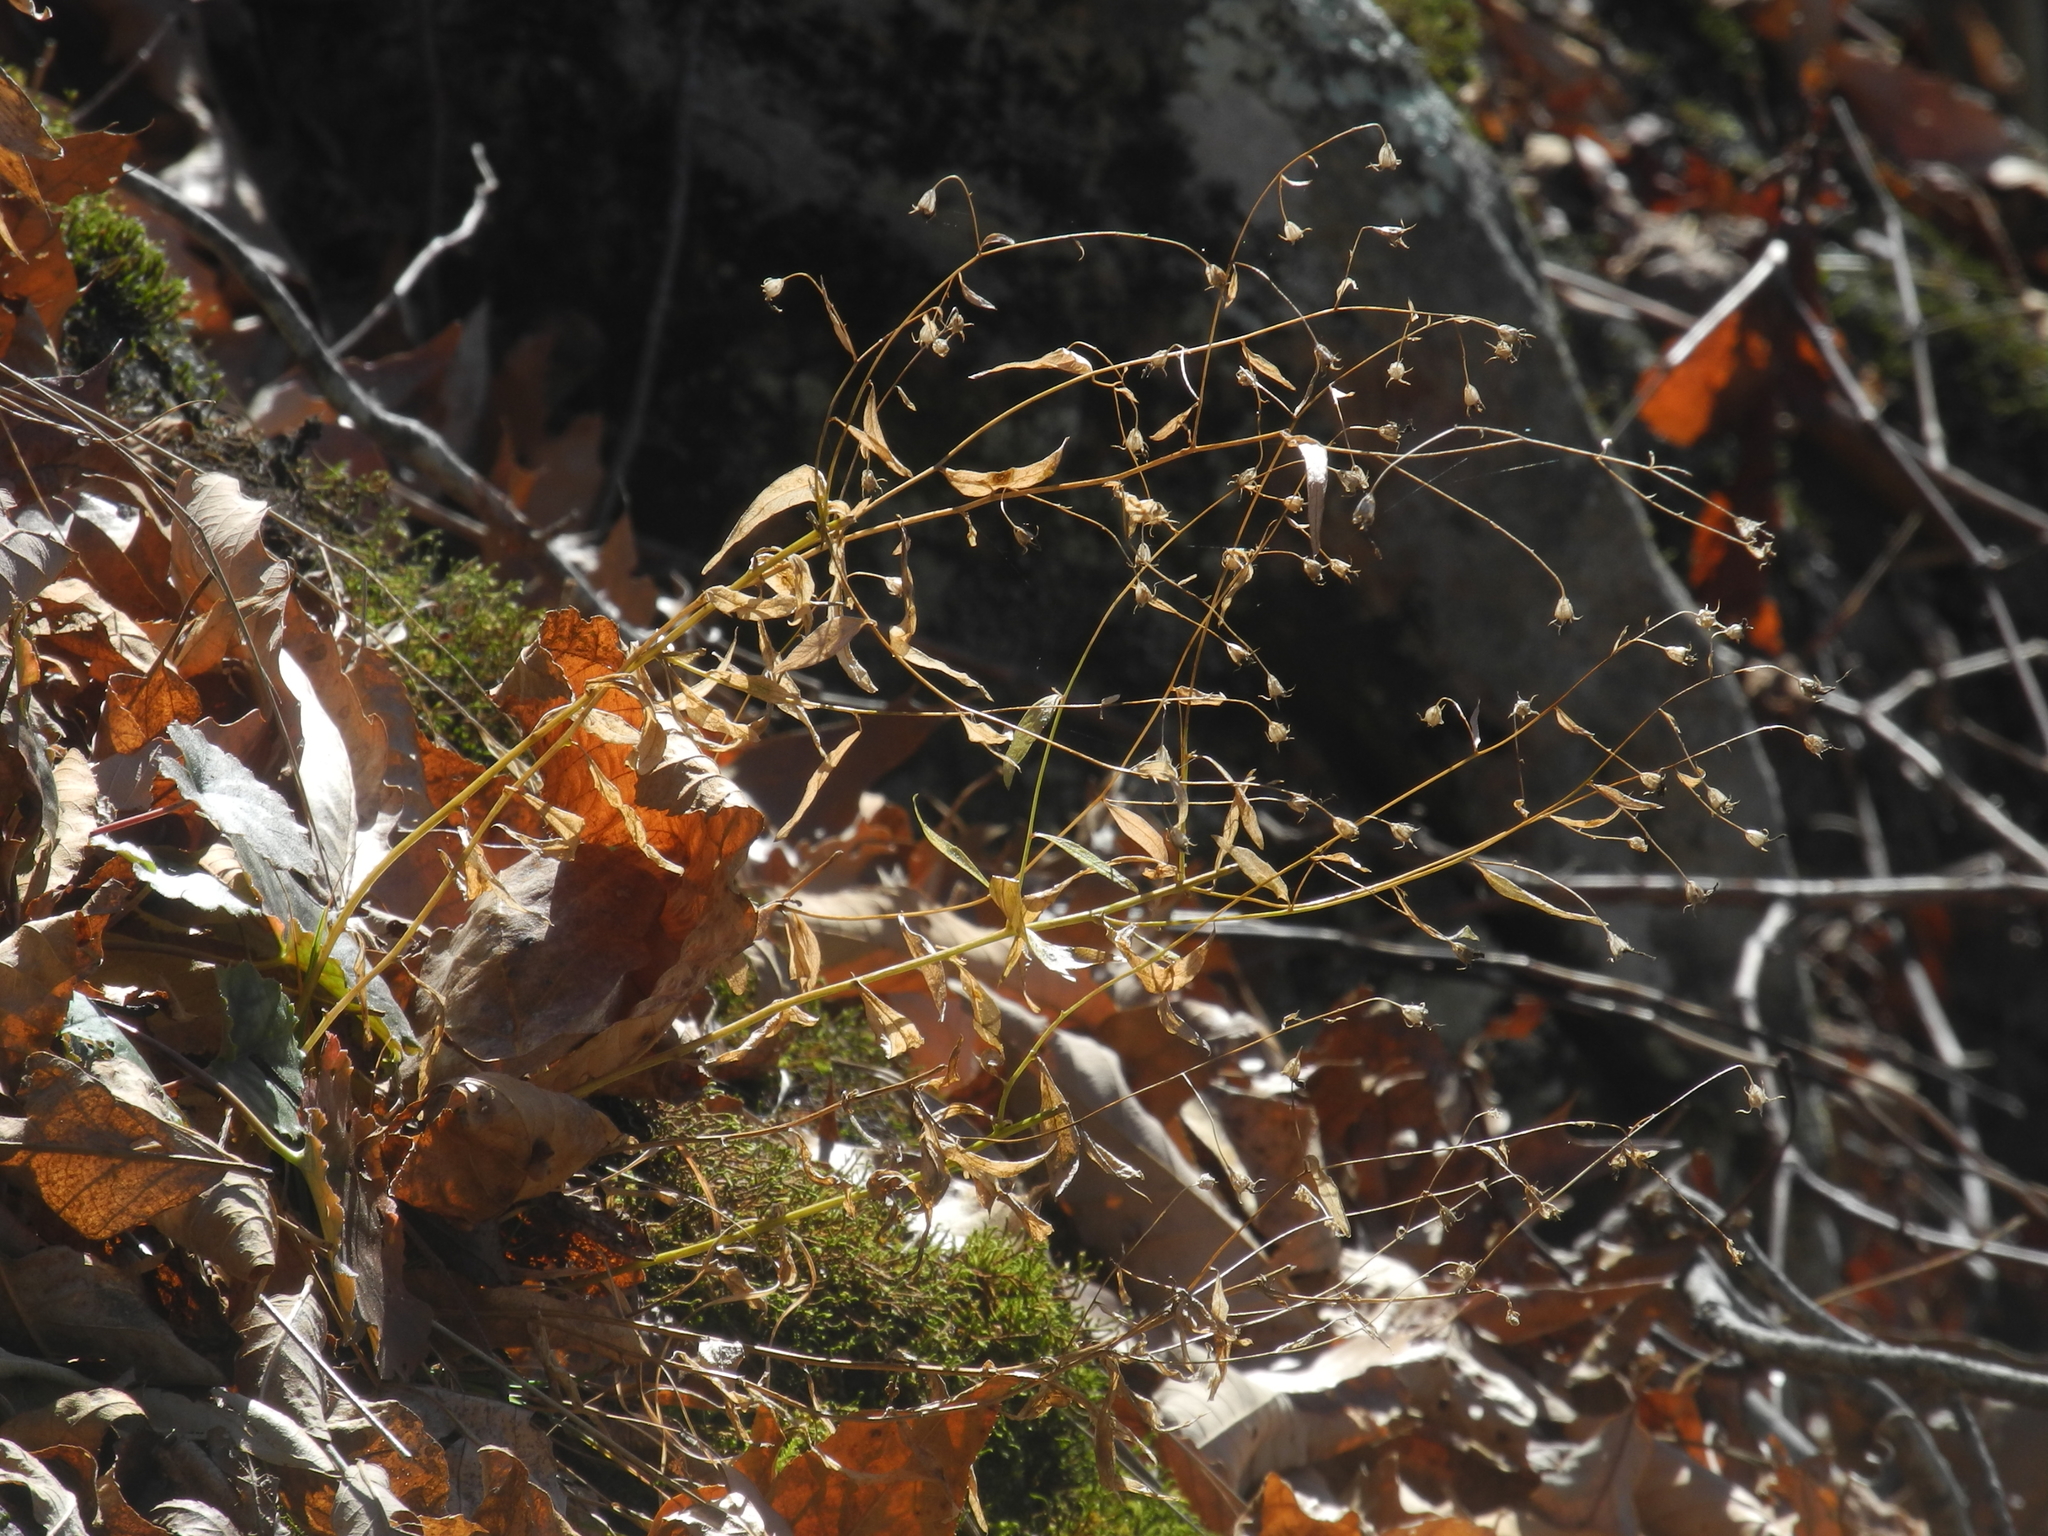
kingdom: Plantae
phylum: Tracheophyta
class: Magnoliopsida
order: Asterales
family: Campanulaceae
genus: Campanula
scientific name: Campanula divaricata
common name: Appalachian bellflower
